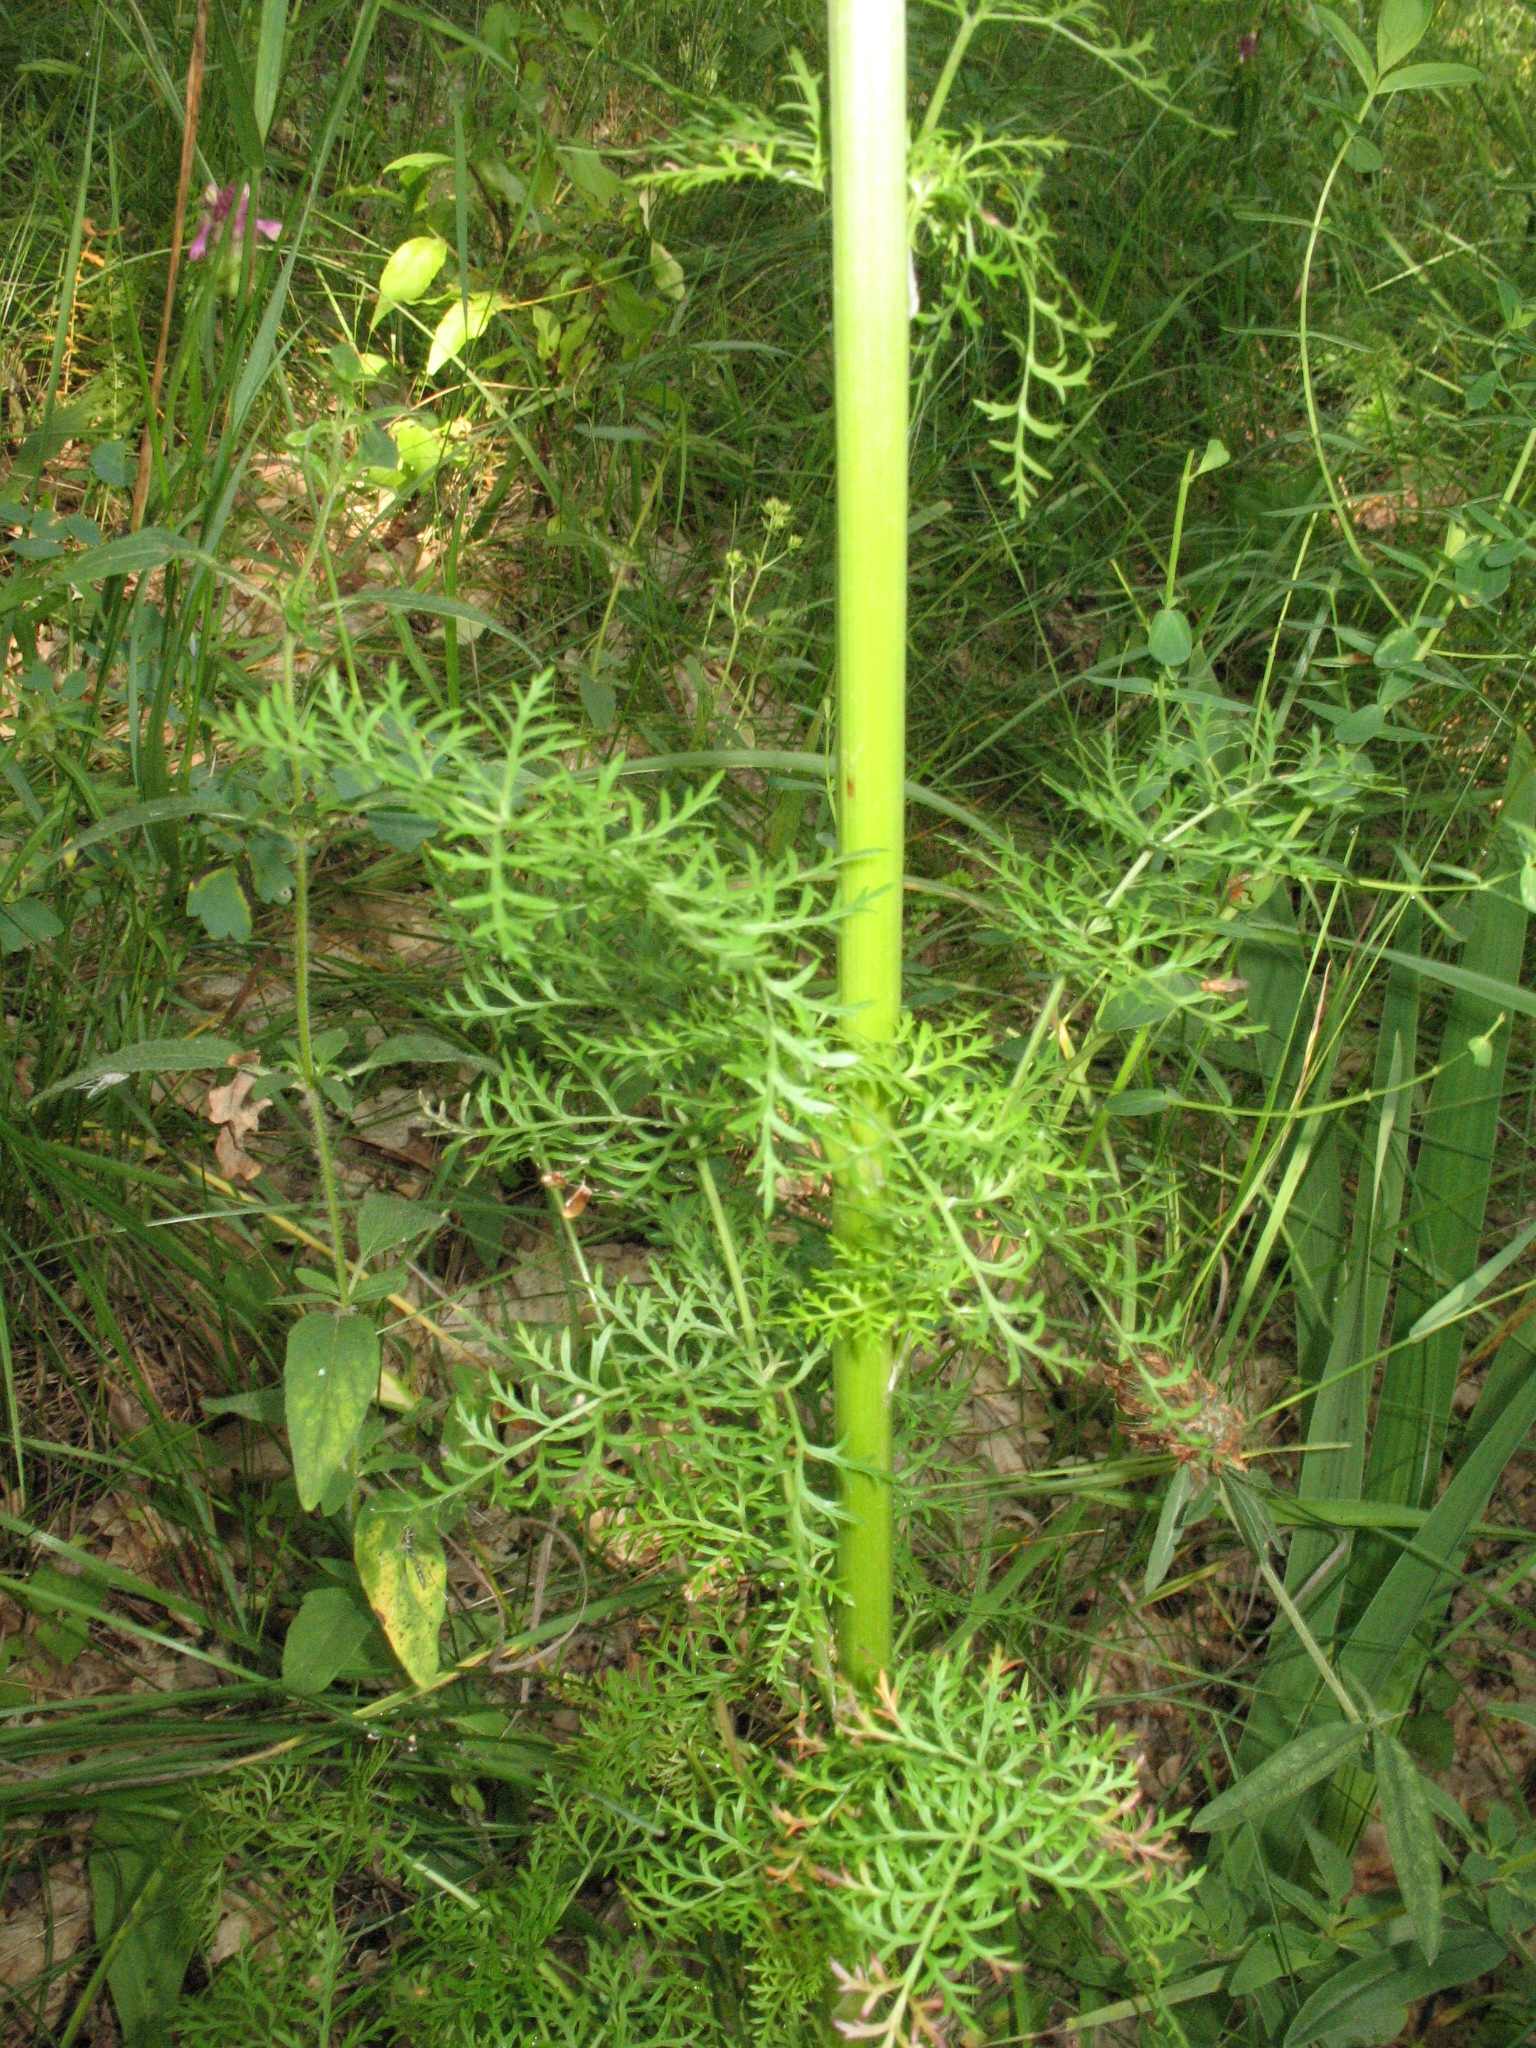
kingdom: Plantae
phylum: Tracheophyta
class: Magnoliopsida
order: Apiales
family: Apiaceae
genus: Aulacospermum
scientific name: Aulacospermum multifidum
